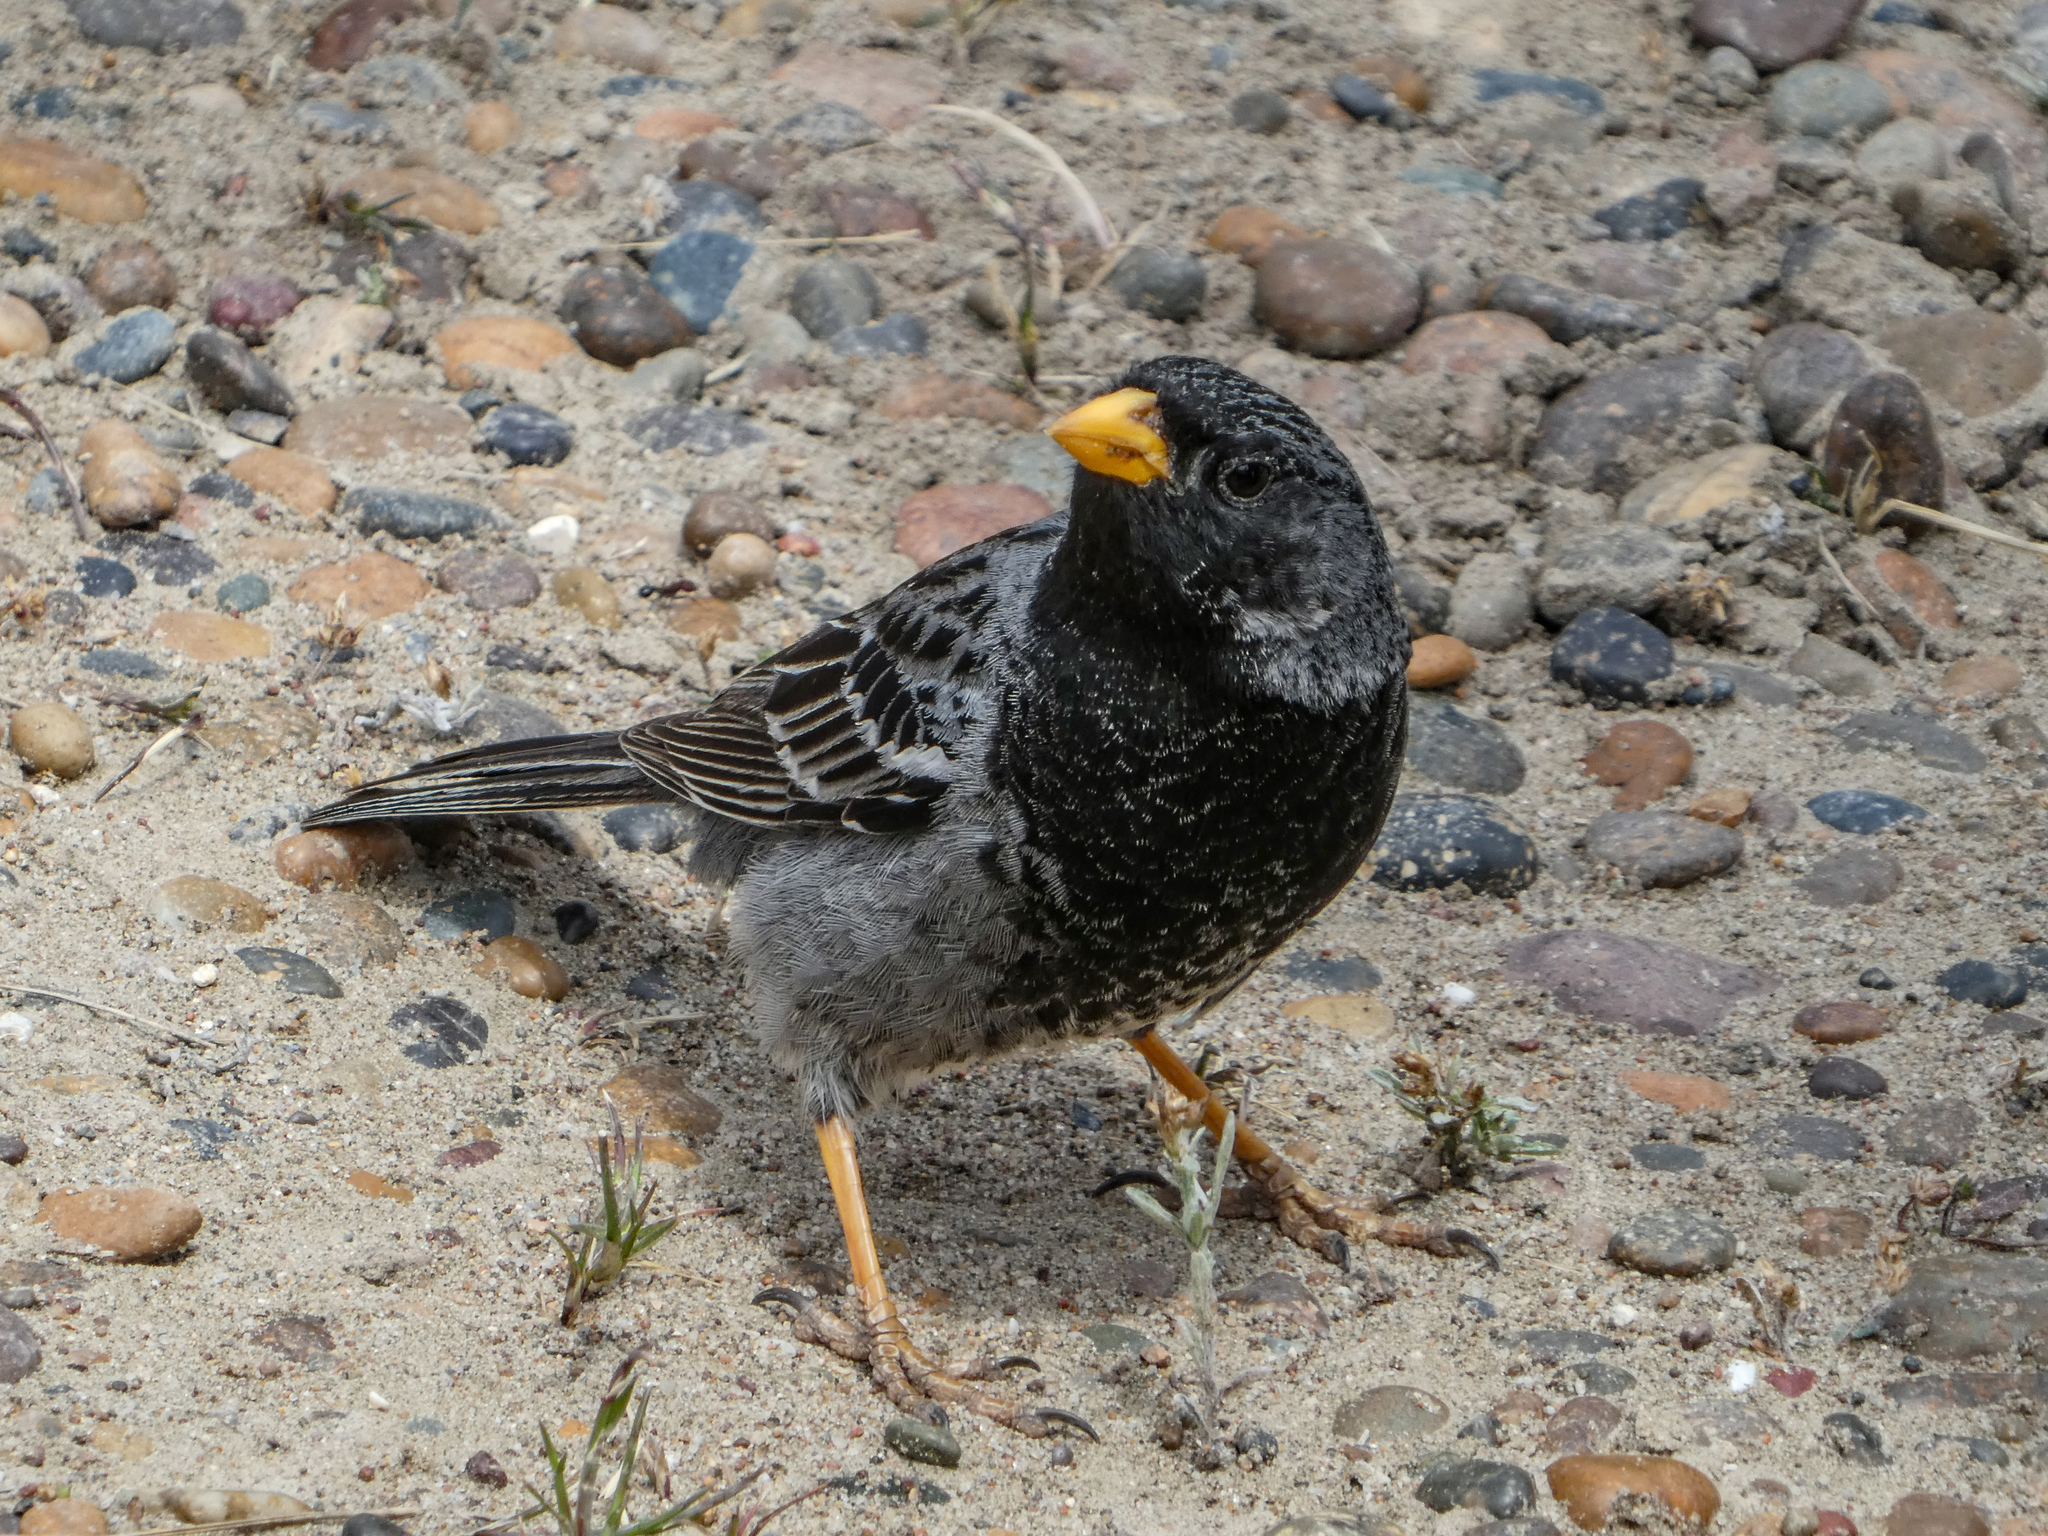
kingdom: Animalia
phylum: Chordata
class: Aves
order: Passeriformes
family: Thraupidae
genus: Rhopospina
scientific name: Rhopospina fruticeti
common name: Mourning sierra finch
